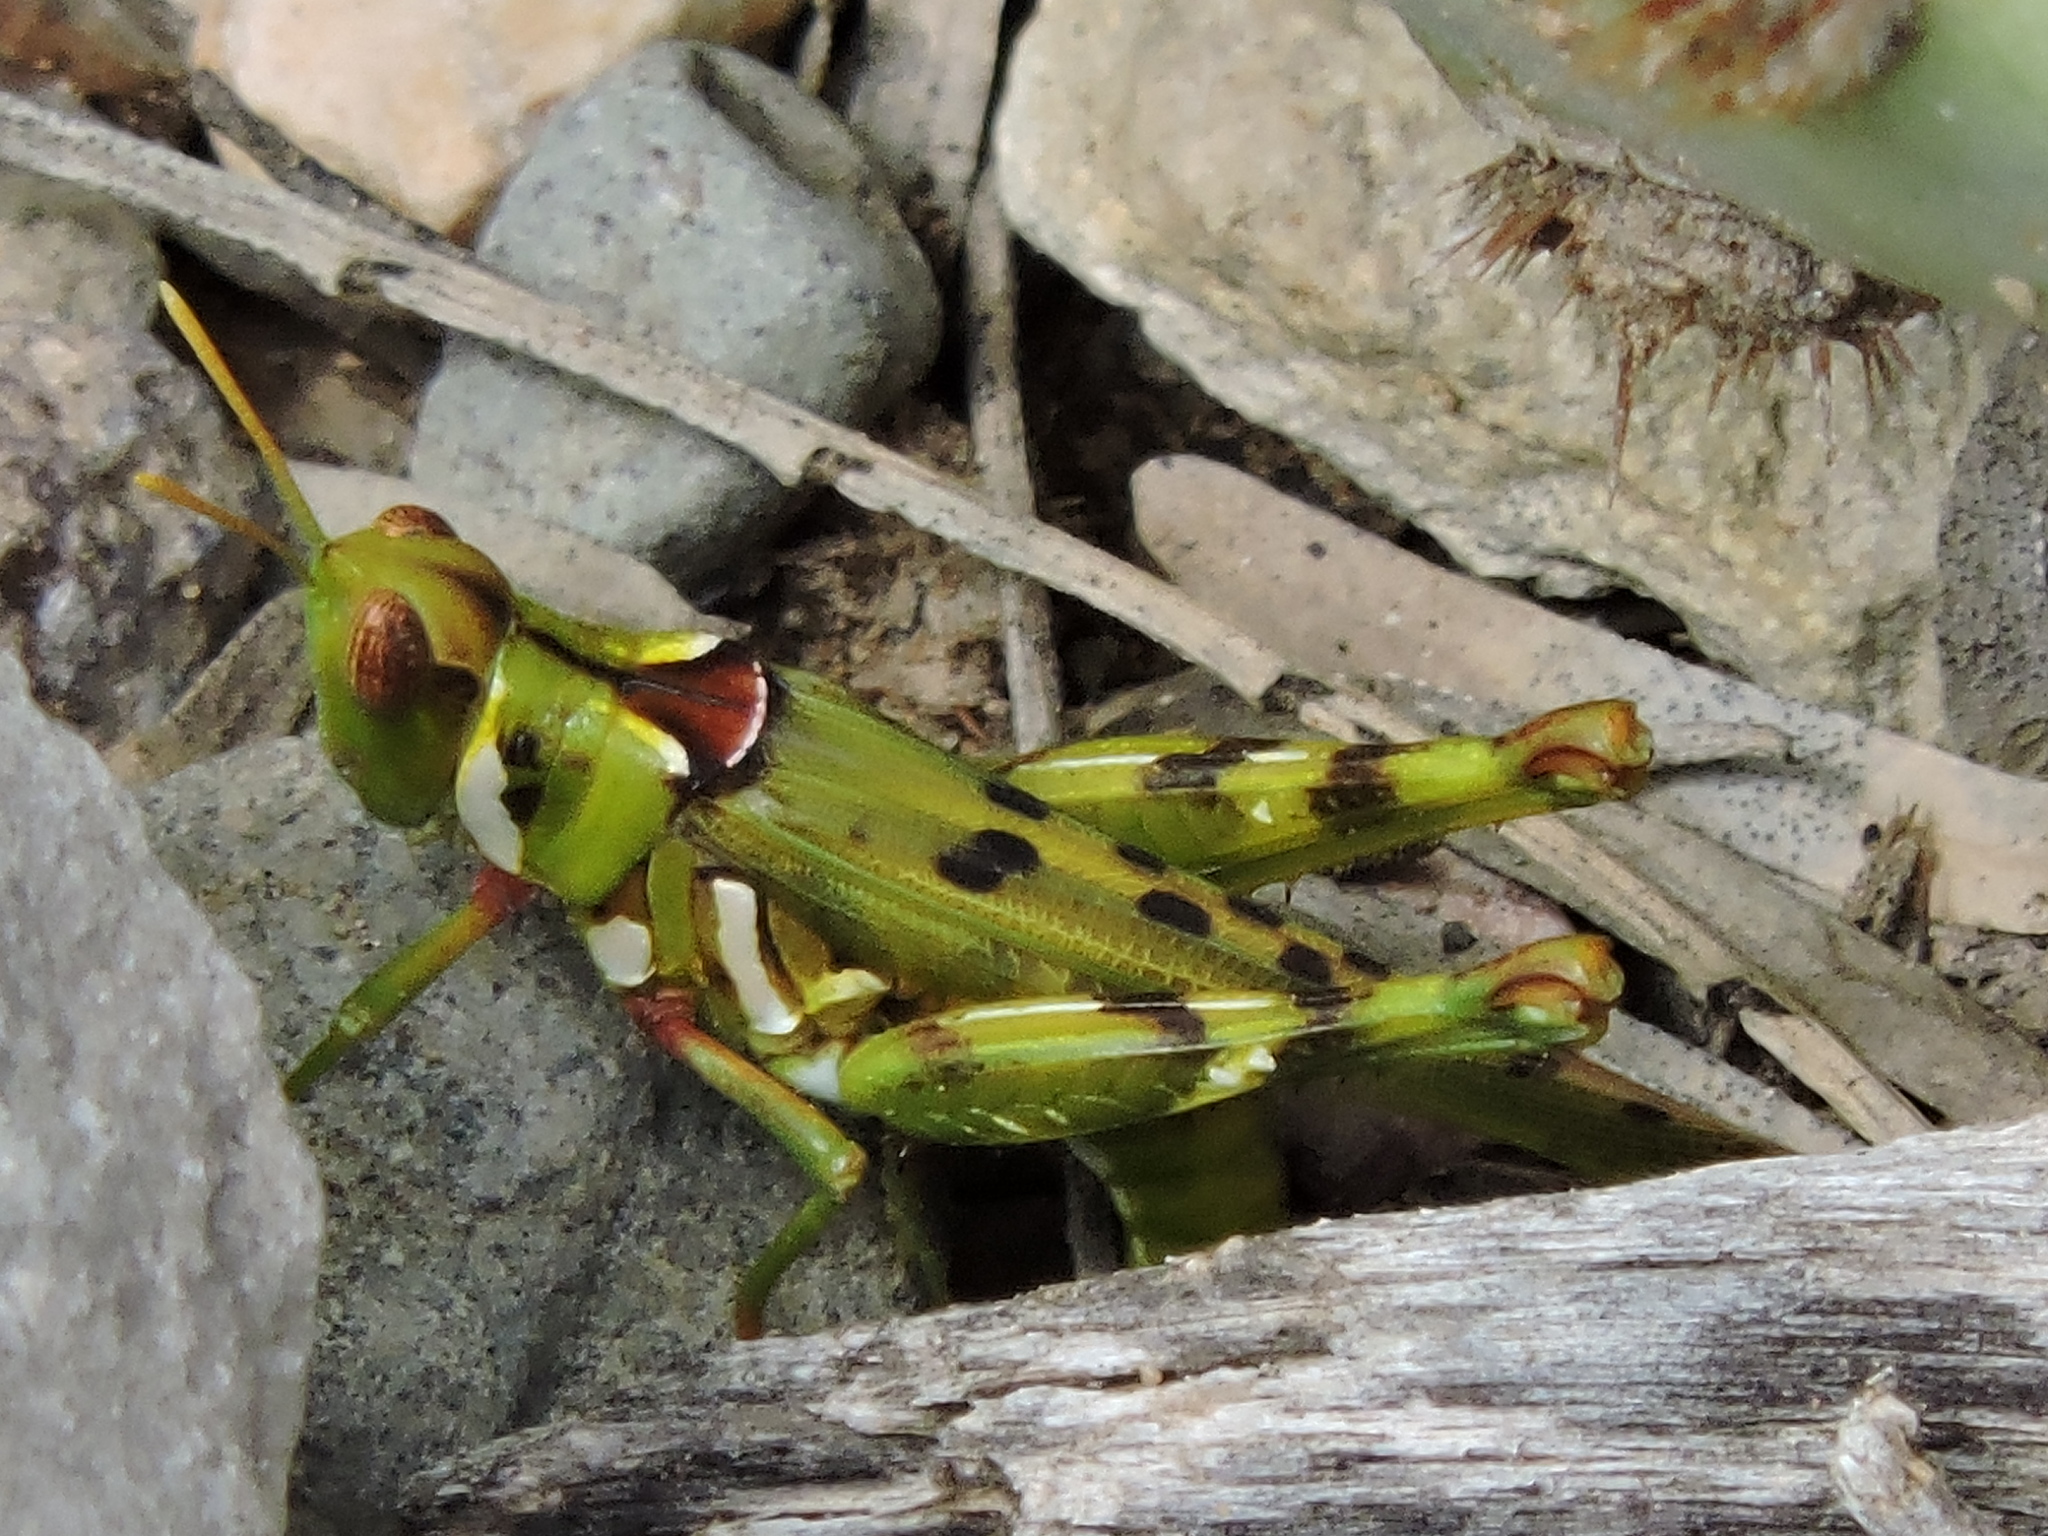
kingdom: Animalia
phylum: Arthropoda
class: Insecta
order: Orthoptera
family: Acrididae
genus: Bootettix
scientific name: Bootettix argentatus
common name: Creosote bush grasshopper
